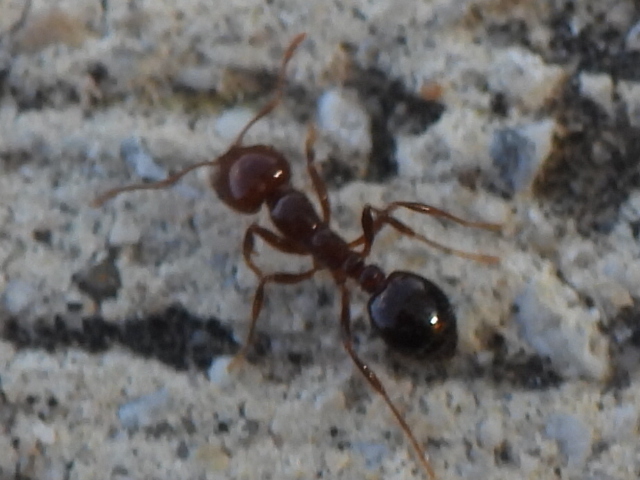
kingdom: Animalia
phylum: Arthropoda
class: Insecta
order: Hymenoptera
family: Formicidae
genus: Solenopsis
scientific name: Solenopsis invicta
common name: Red imported fire ant
